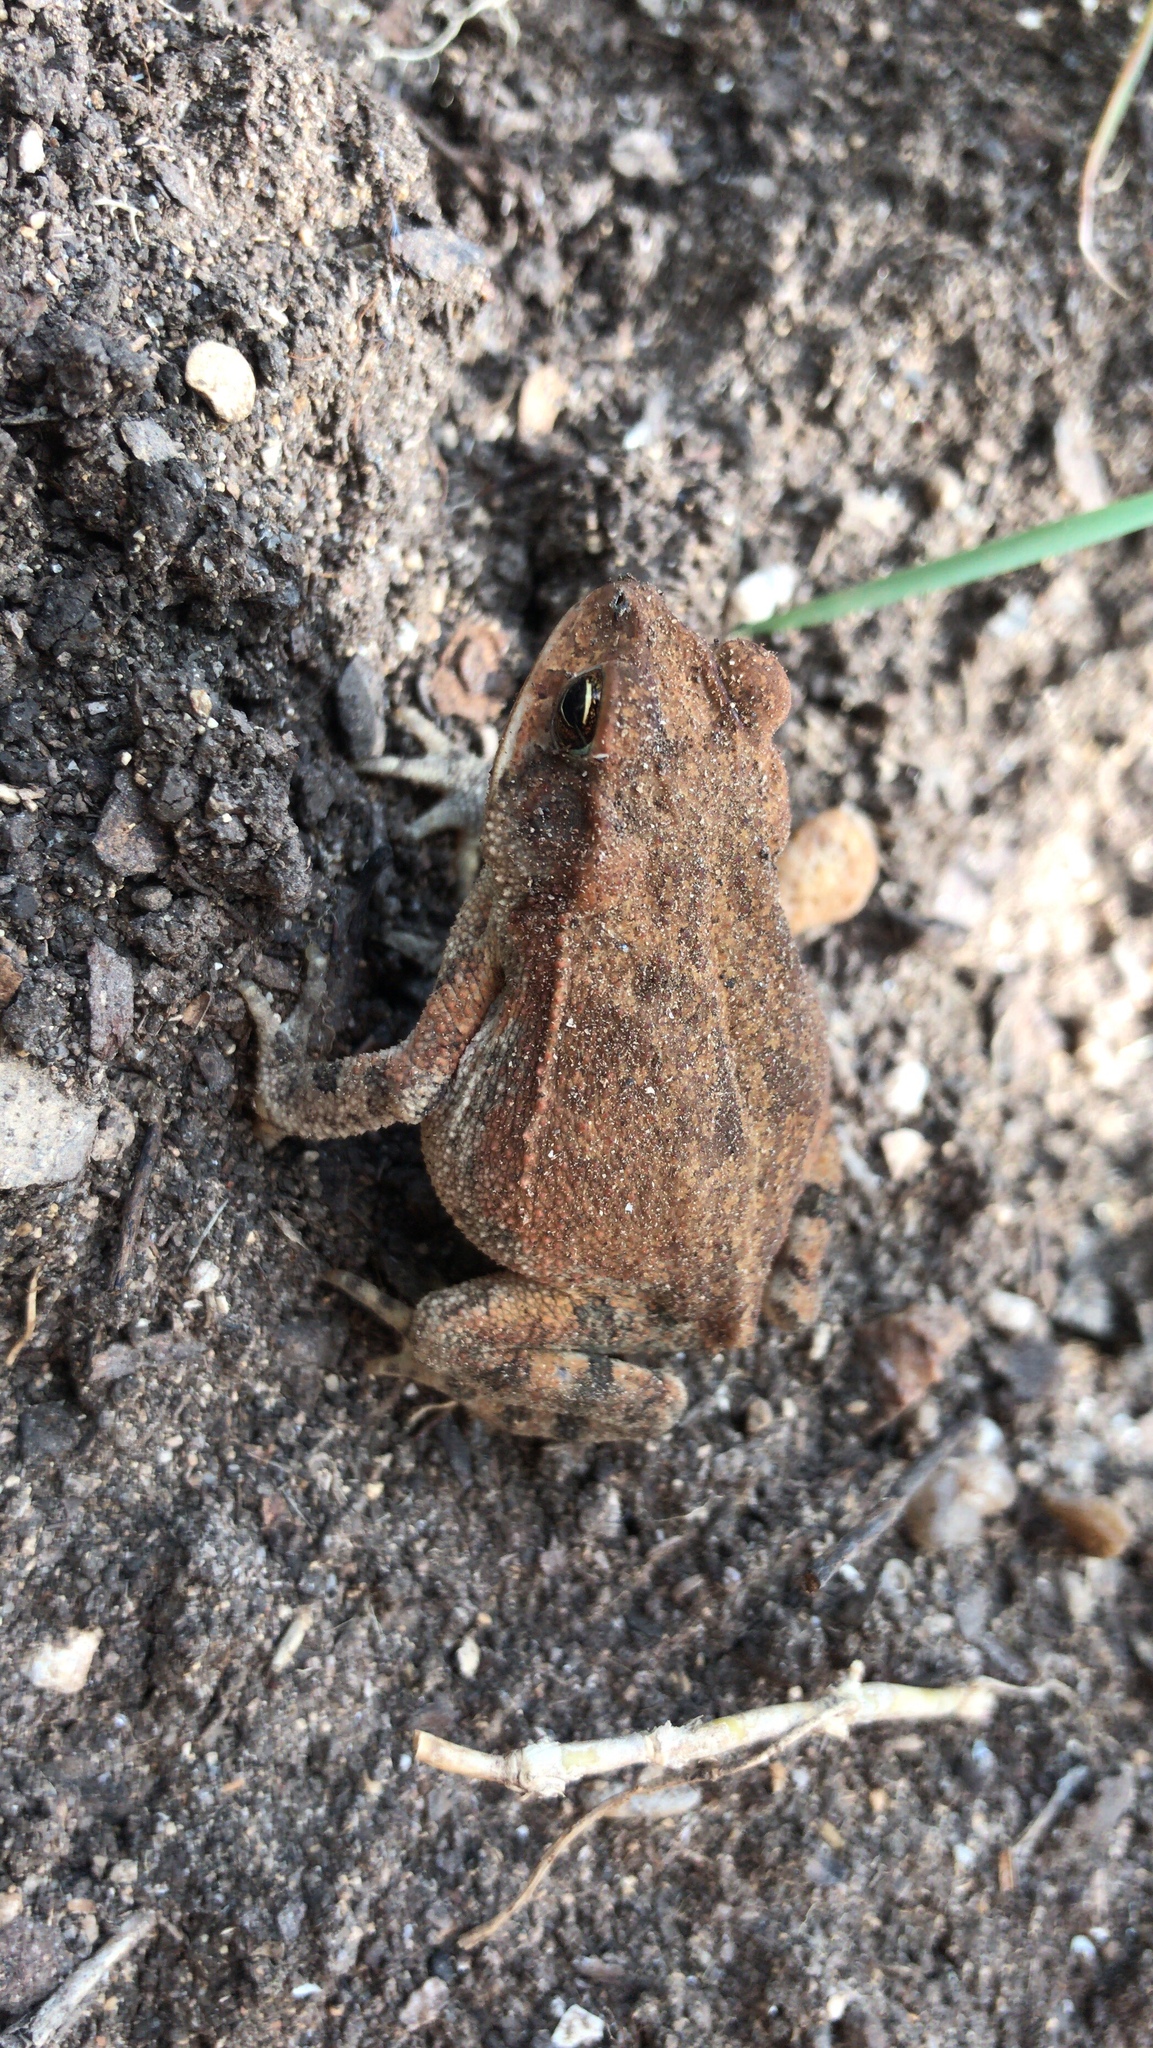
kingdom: Animalia
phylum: Chordata
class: Amphibia
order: Anura
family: Bufonidae
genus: Incilius
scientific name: Incilius nebulifer
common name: Gulf coast toad
